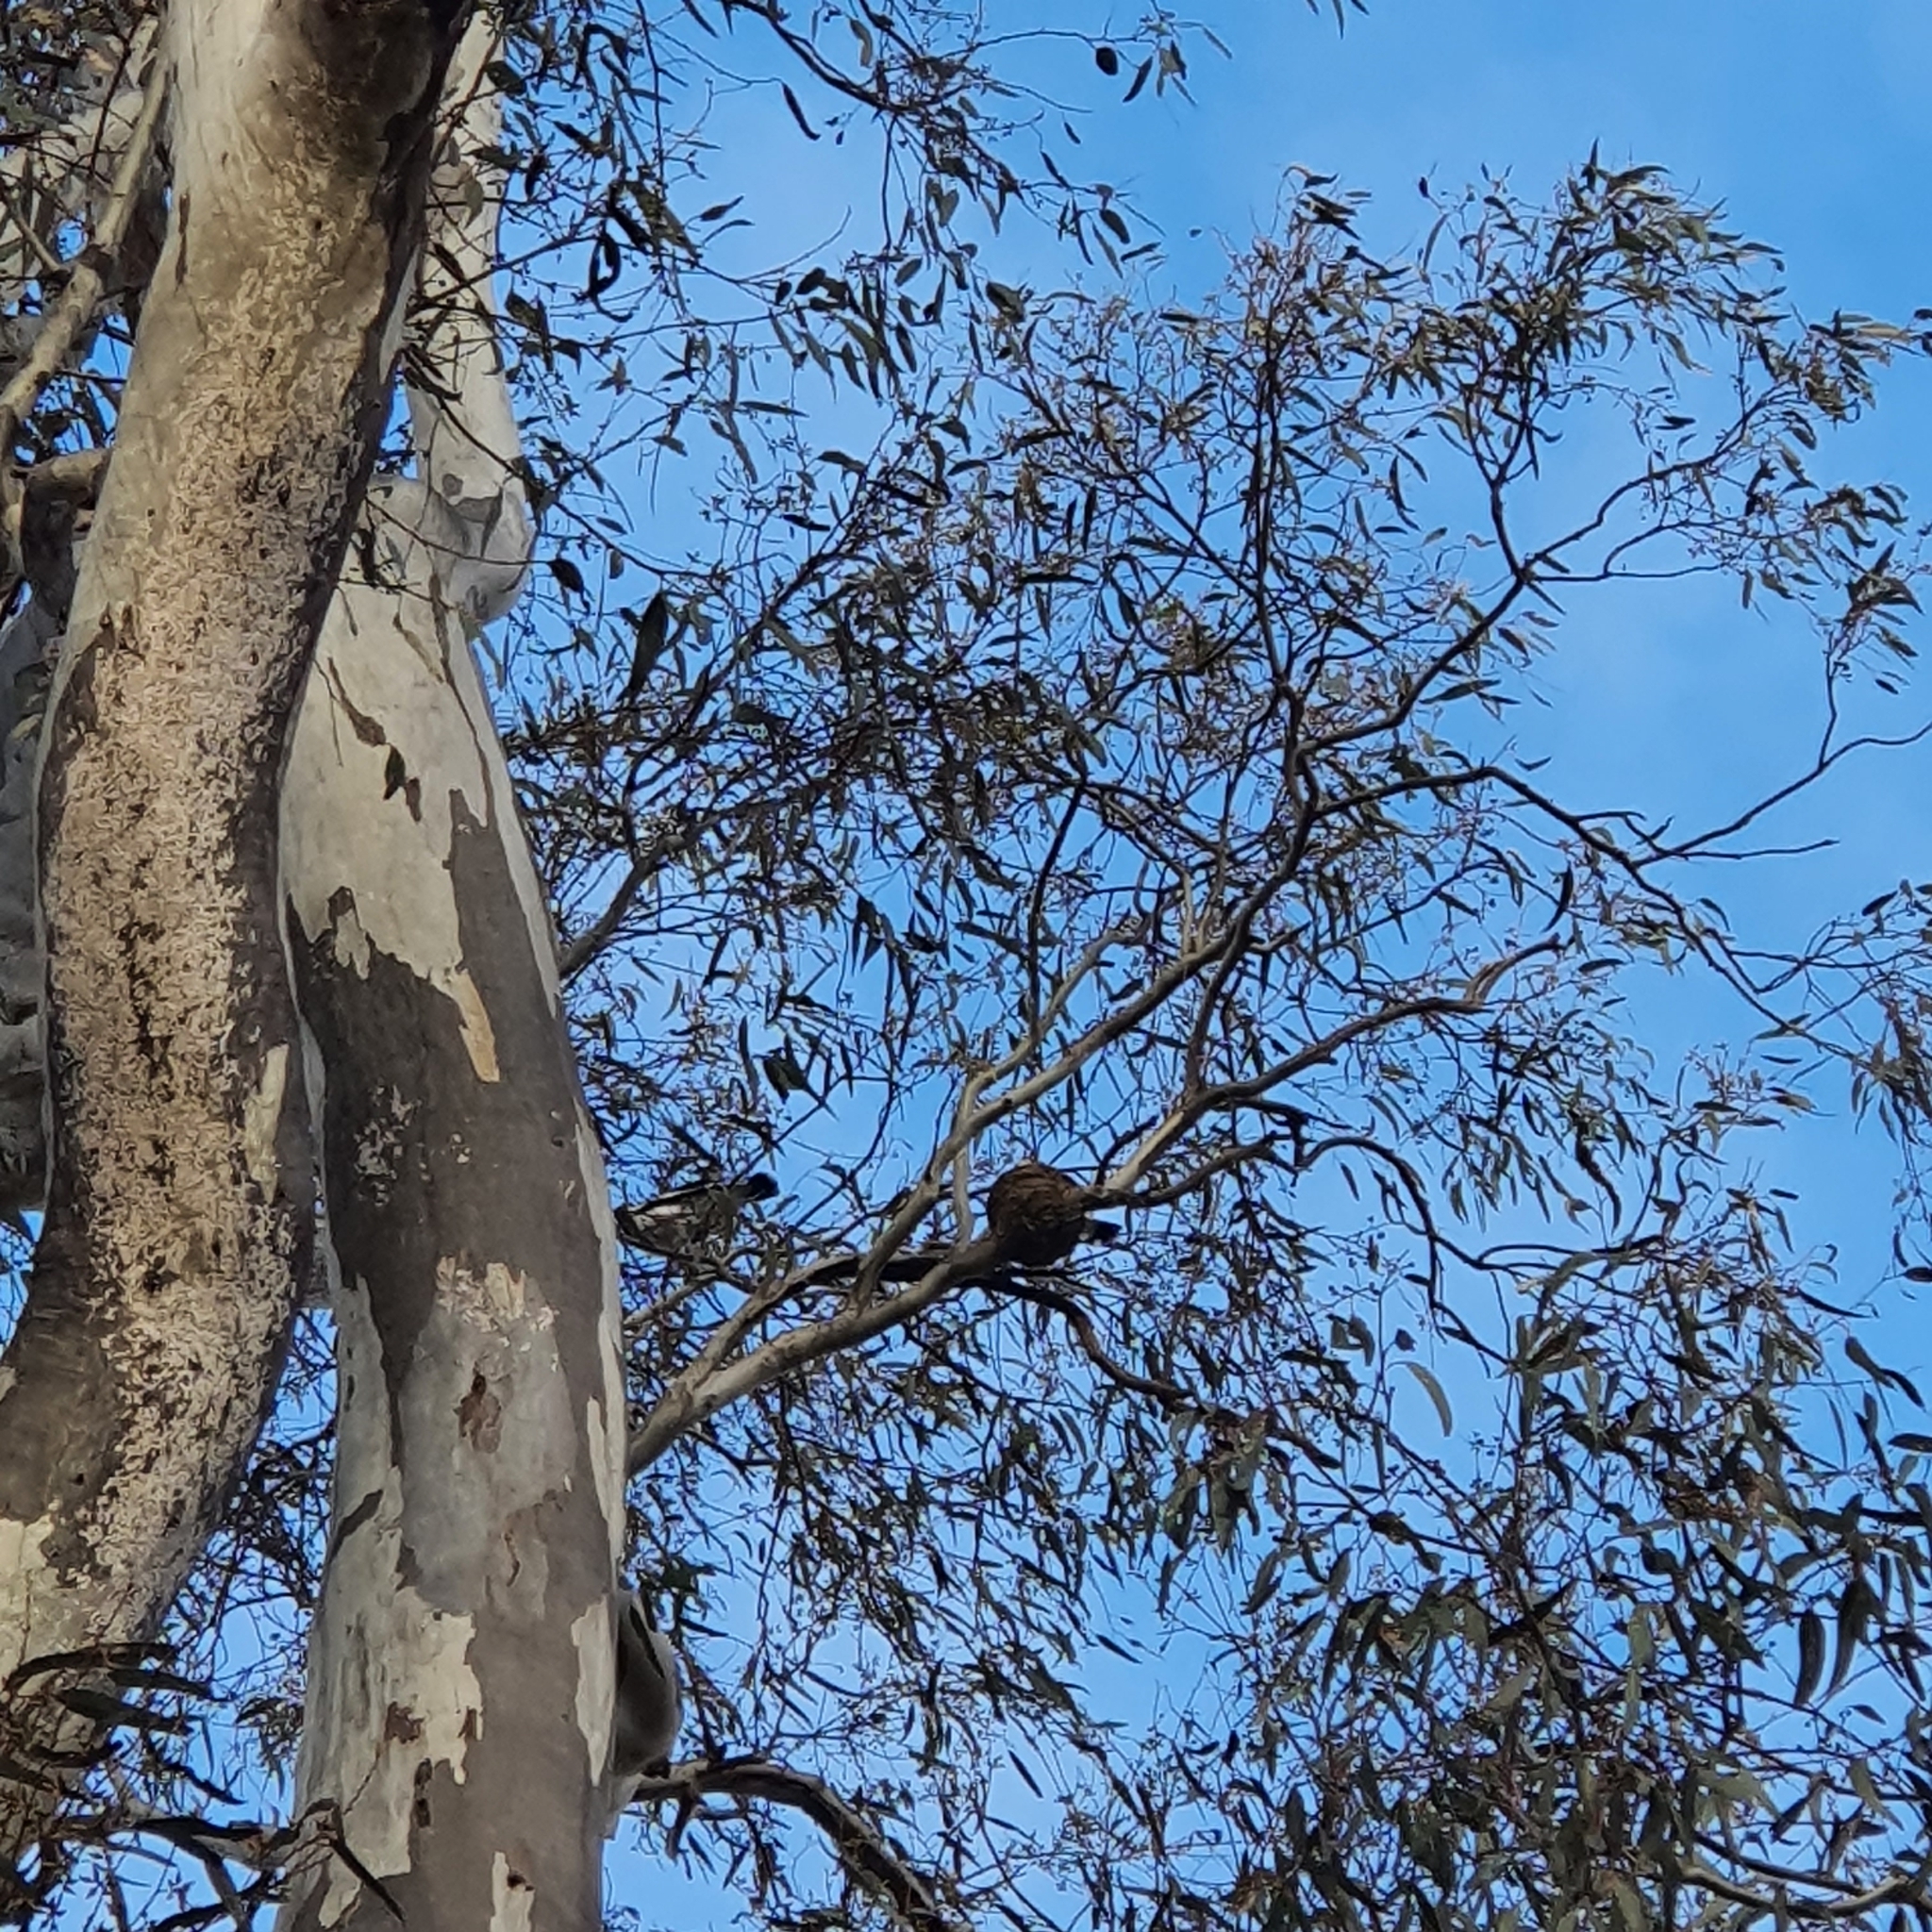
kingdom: Animalia
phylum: Chordata
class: Aves
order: Passeriformes
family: Monarchidae
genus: Grallina
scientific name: Grallina cyanoleuca
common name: Magpie-lark
